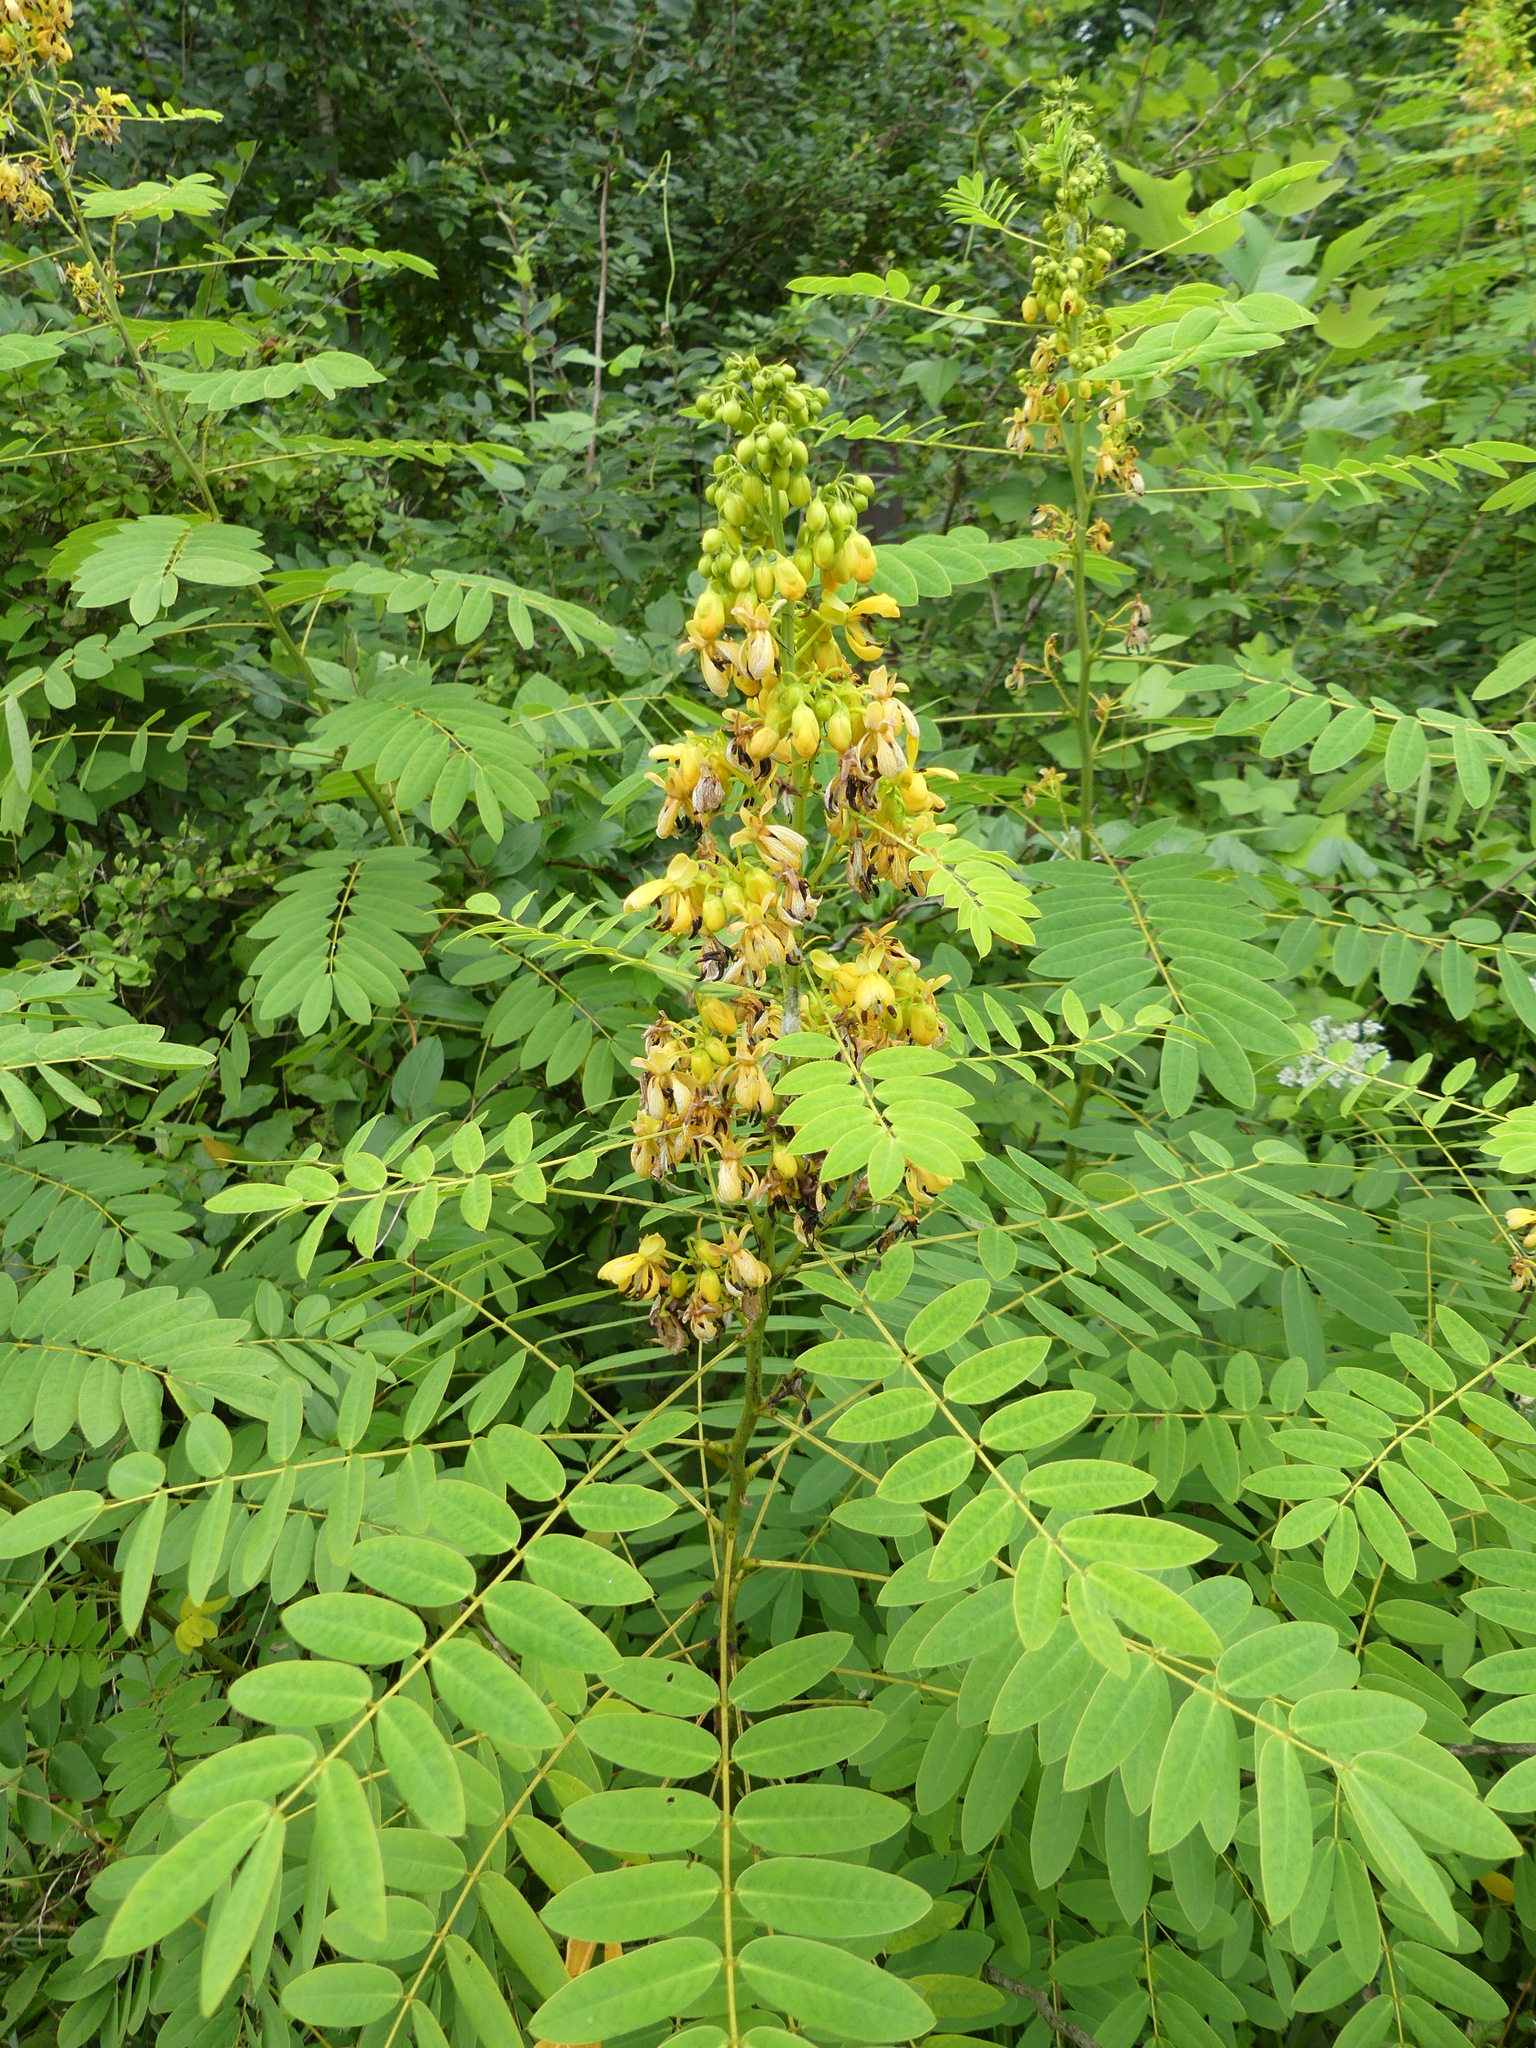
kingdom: Plantae
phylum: Tracheophyta
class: Magnoliopsida
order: Fabales
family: Fabaceae
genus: Senna
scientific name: Senna hebecarpa
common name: Wild senna
